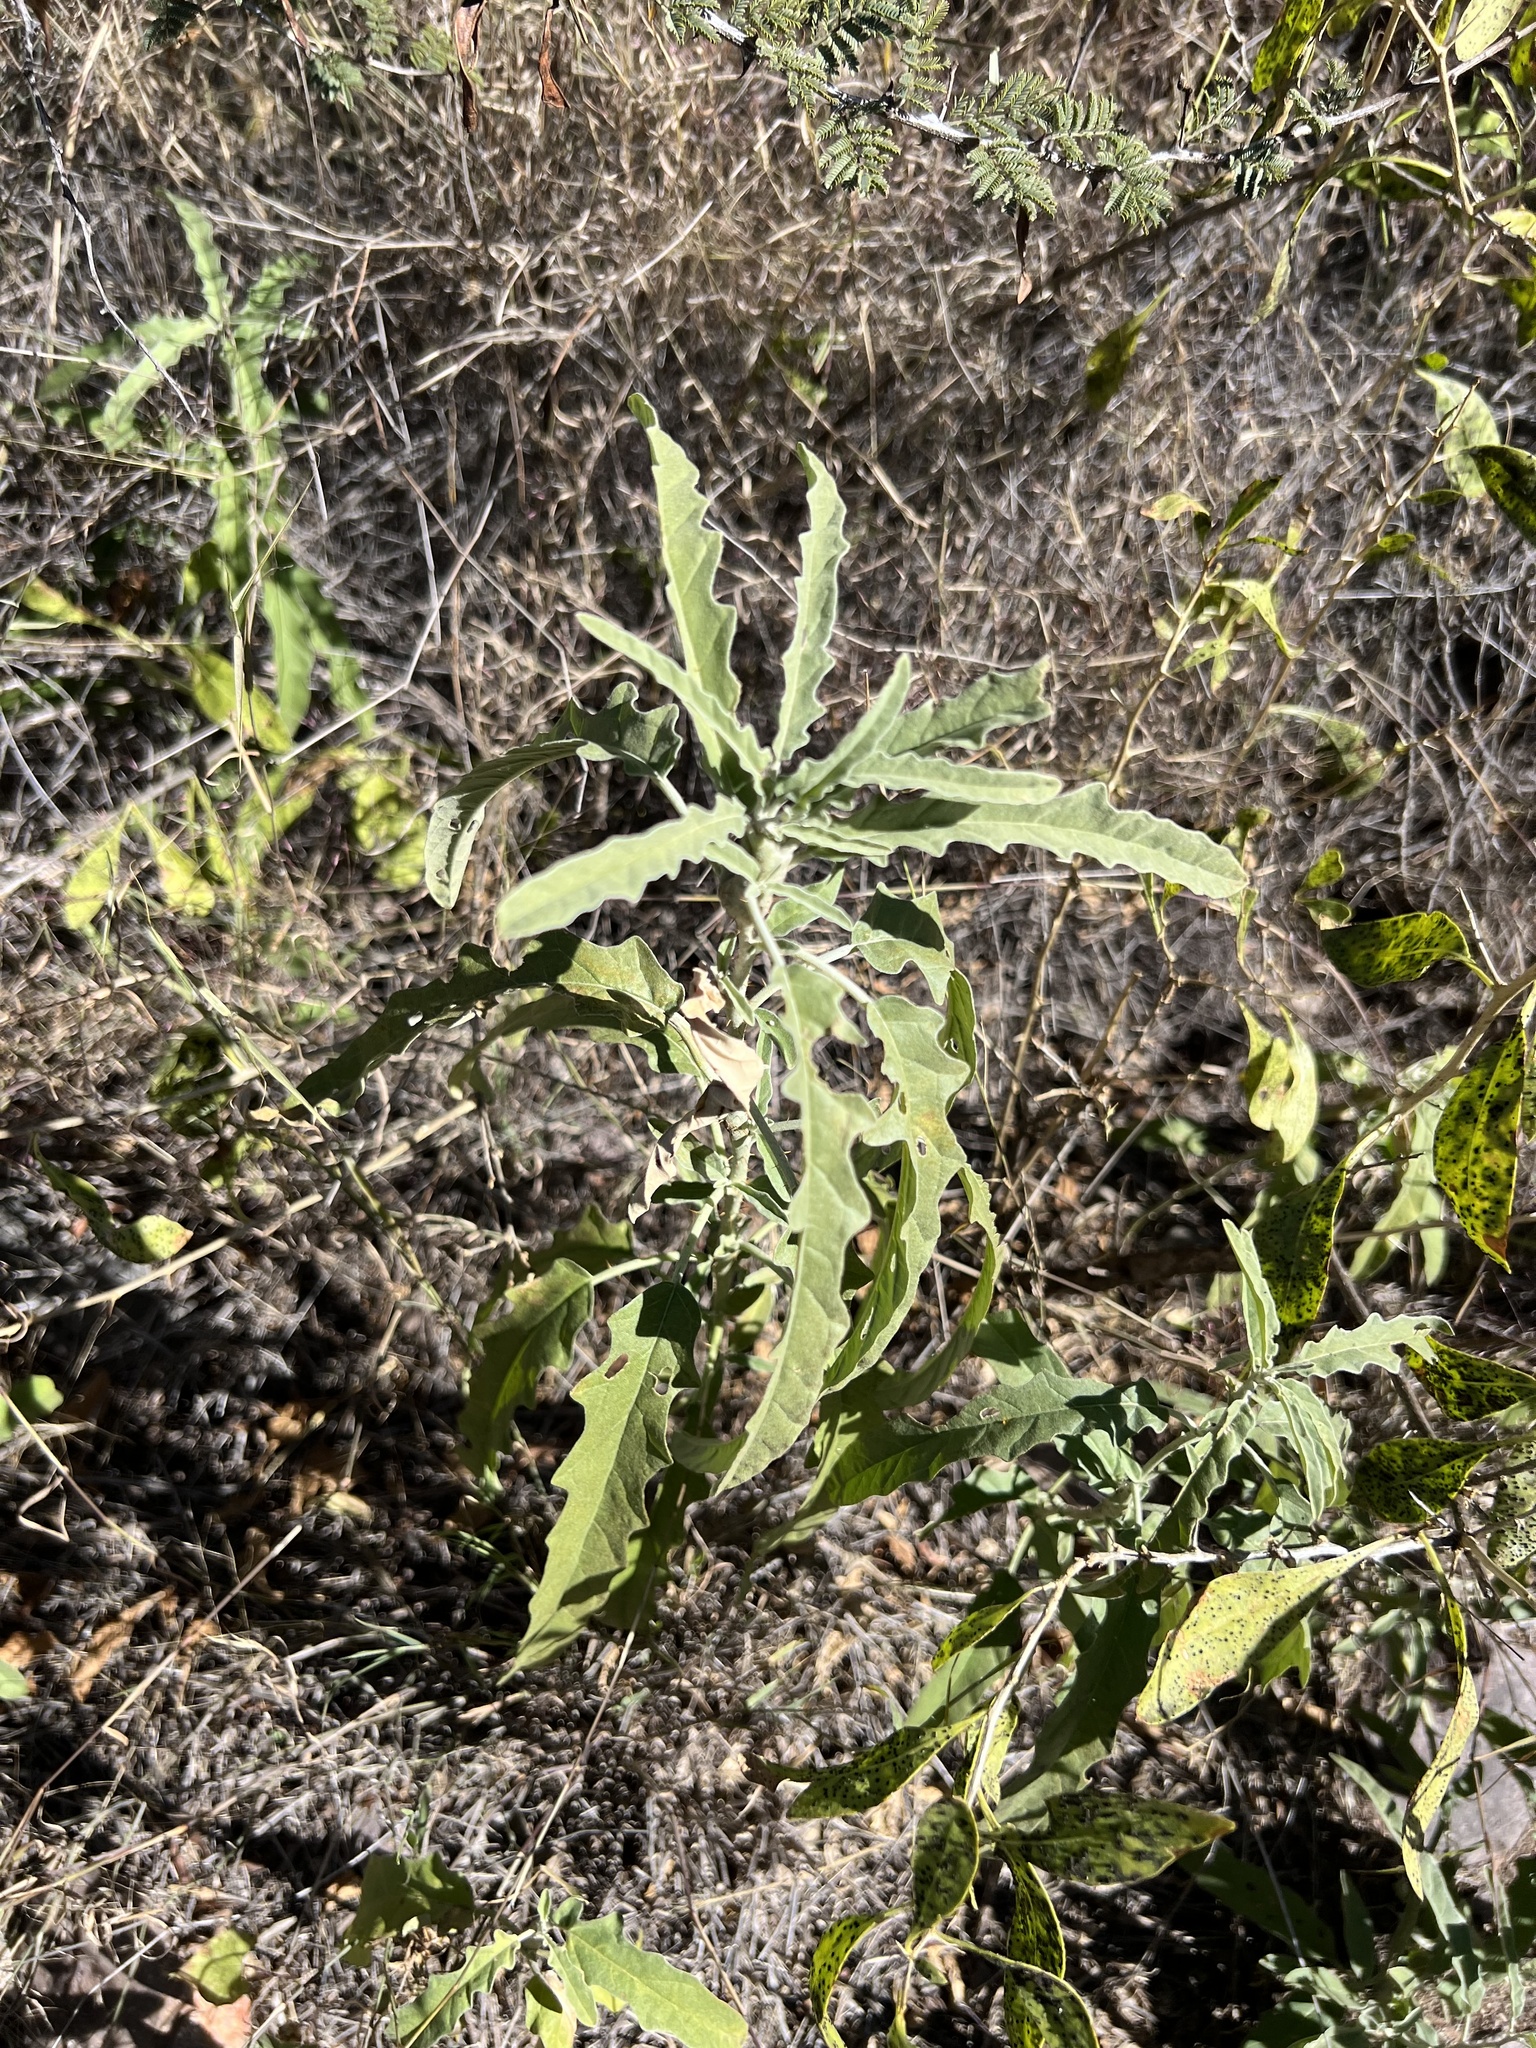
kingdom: Plantae
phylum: Tracheophyta
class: Magnoliopsida
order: Solanales
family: Solanaceae
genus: Solanum
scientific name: Solanum elaeagnifolium
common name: Silverleaf nightshade
